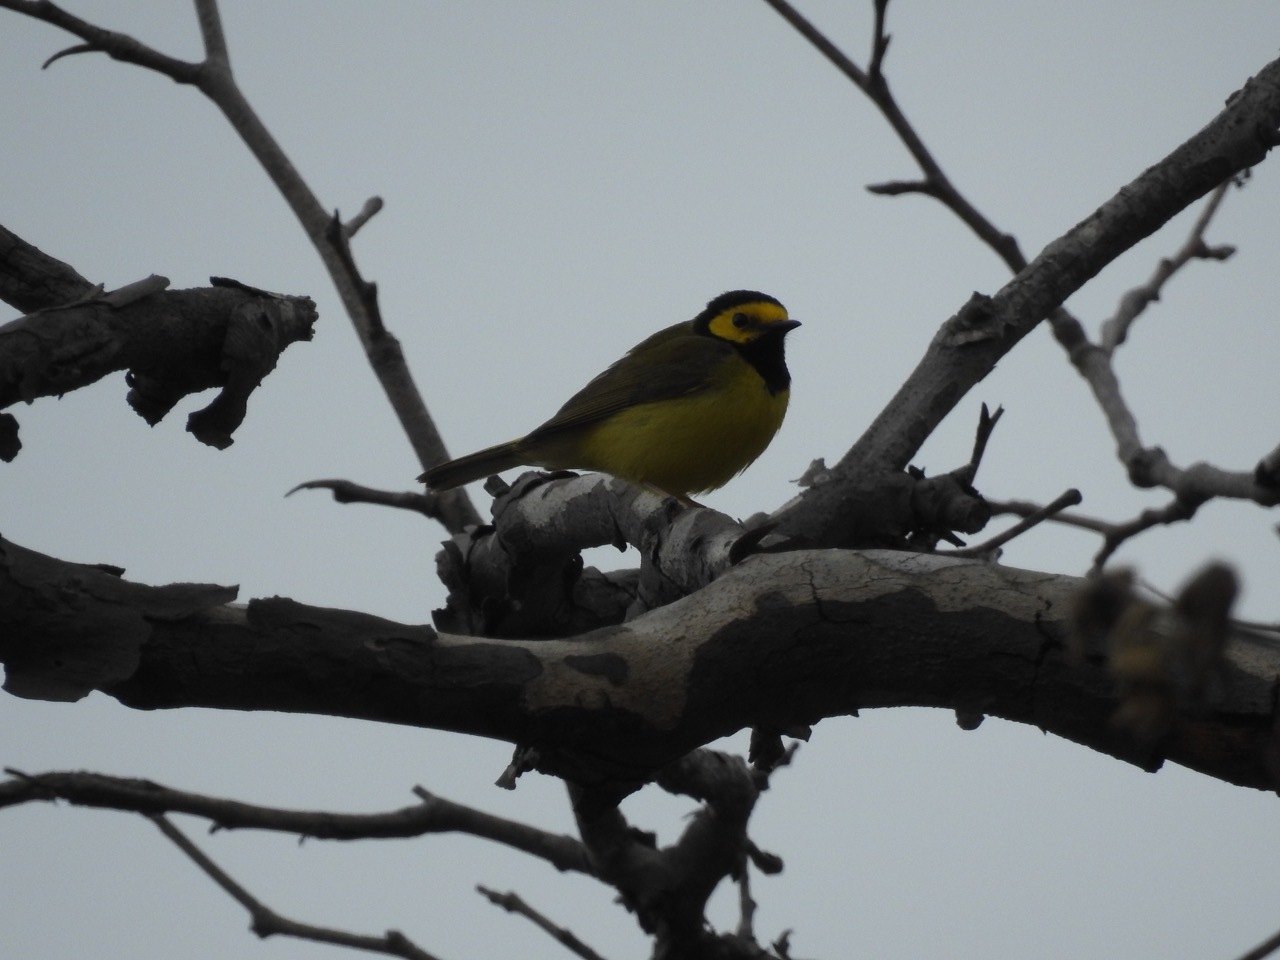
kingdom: Animalia
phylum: Chordata
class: Aves
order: Passeriformes
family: Parulidae
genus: Setophaga
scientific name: Setophaga citrina
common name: Hooded warbler
